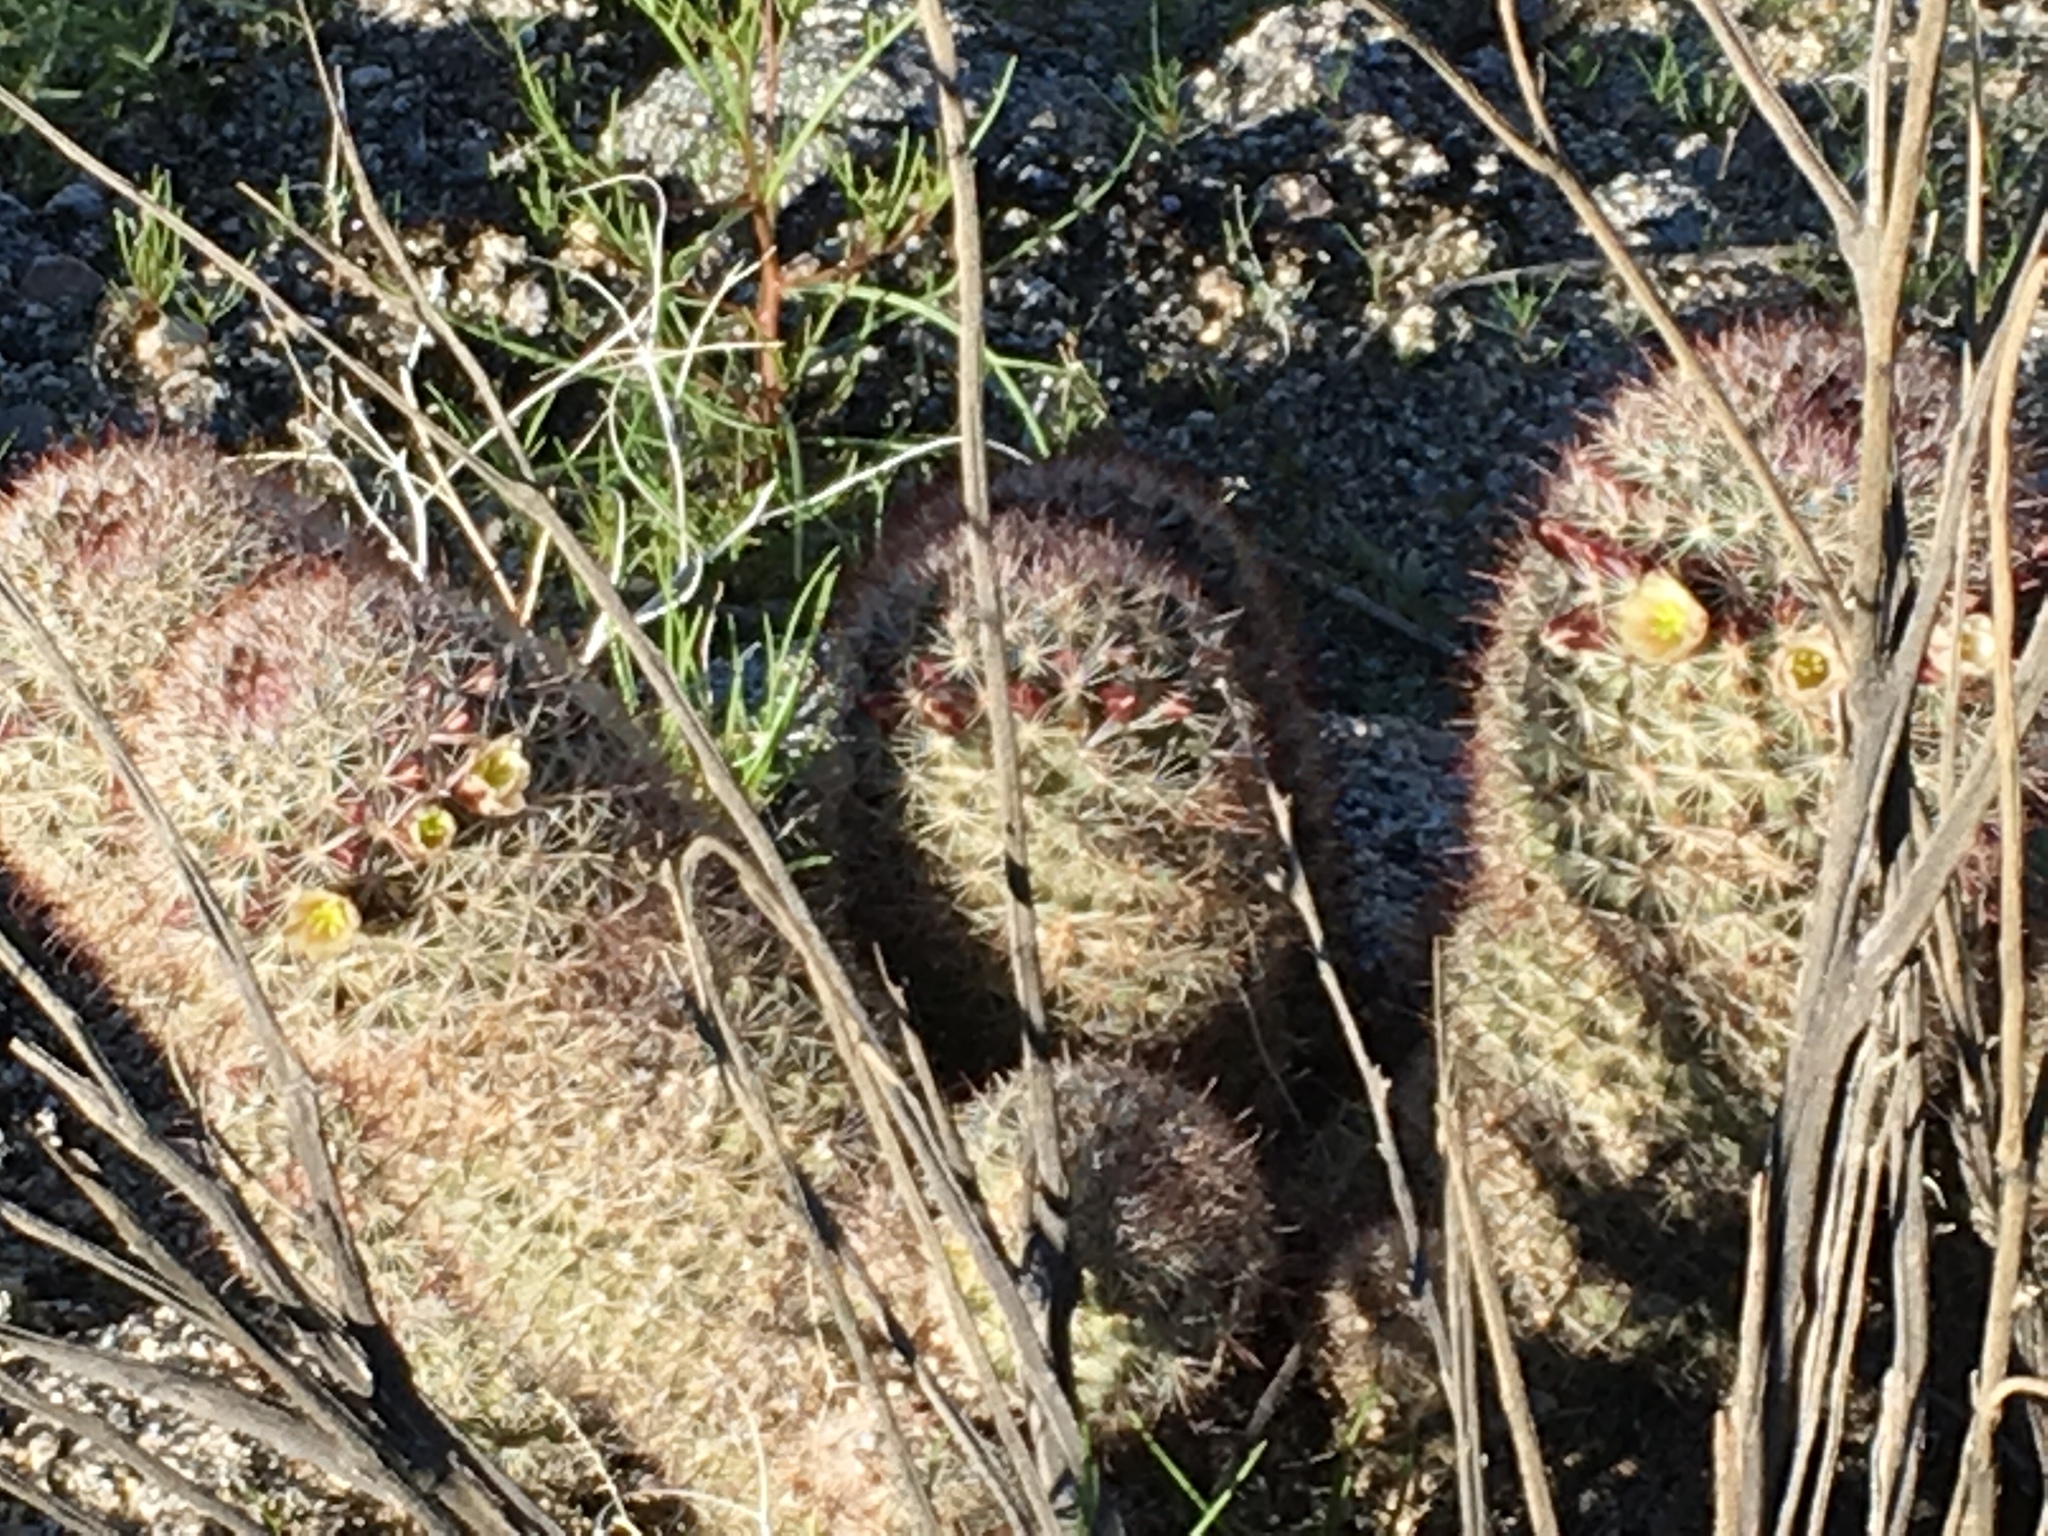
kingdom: Plantae
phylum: Tracheophyta
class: Magnoliopsida
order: Caryophyllales
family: Cactaceae
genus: Cochemiea
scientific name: Cochemiea dioica
